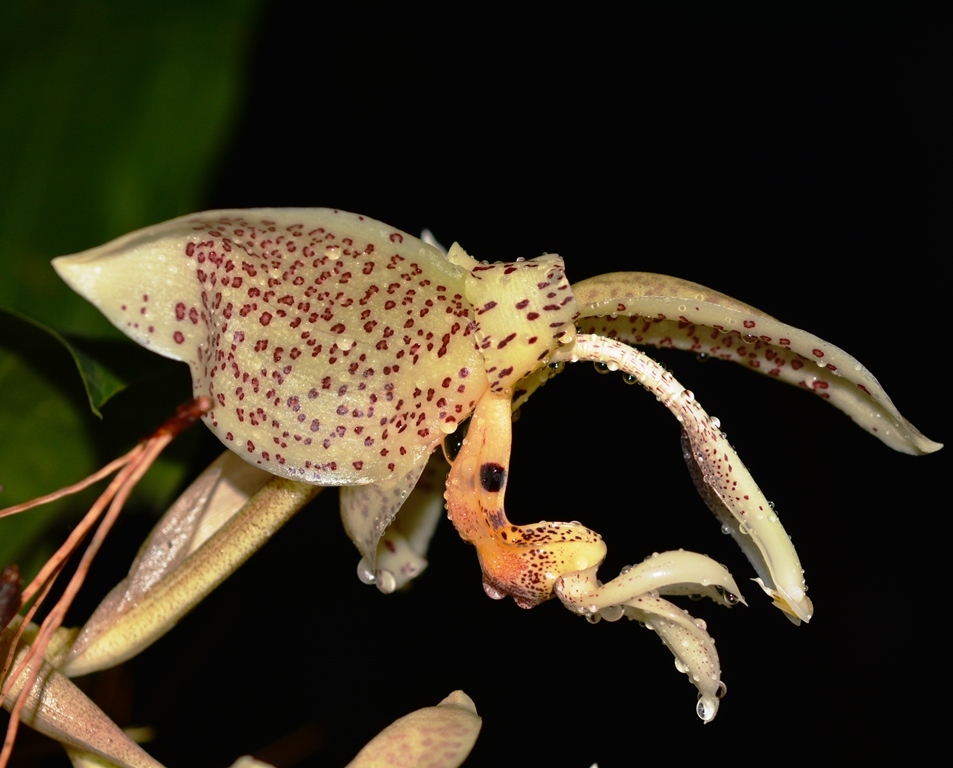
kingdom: Plantae
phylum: Tracheophyta
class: Liliopsida
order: Asparagales
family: Orchidaceae
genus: Stanhopea
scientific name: Stanhopea oculata
